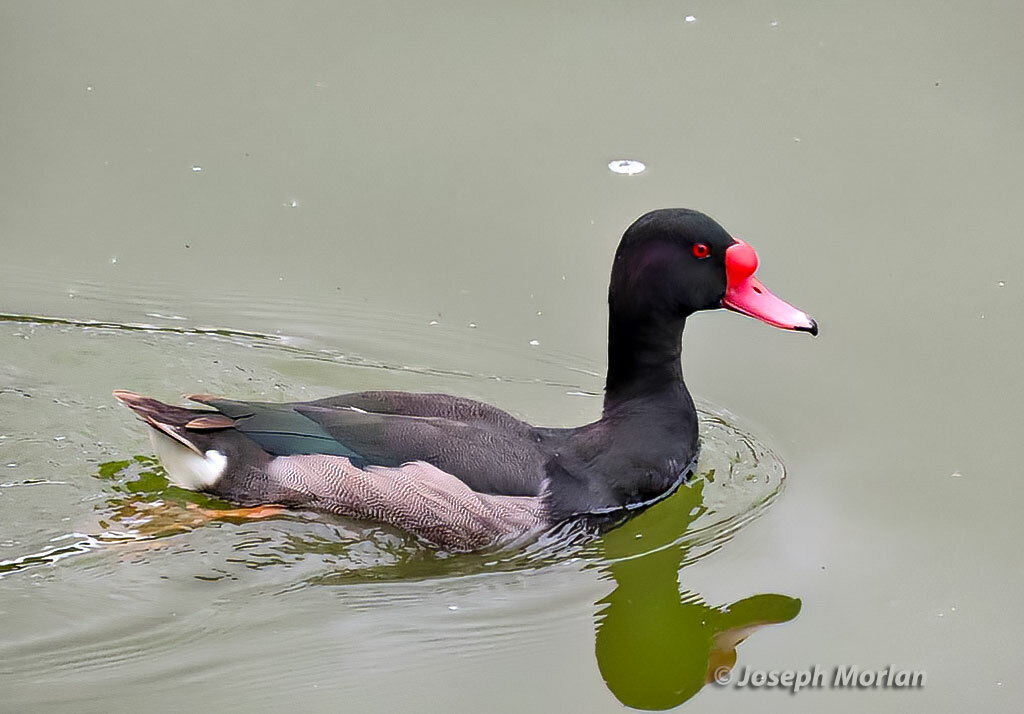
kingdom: Animalia
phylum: Chordata
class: Aves
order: Anseriformes
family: Anatidae
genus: Netta
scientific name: Netta peposaca
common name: Rosy-billed pochard
